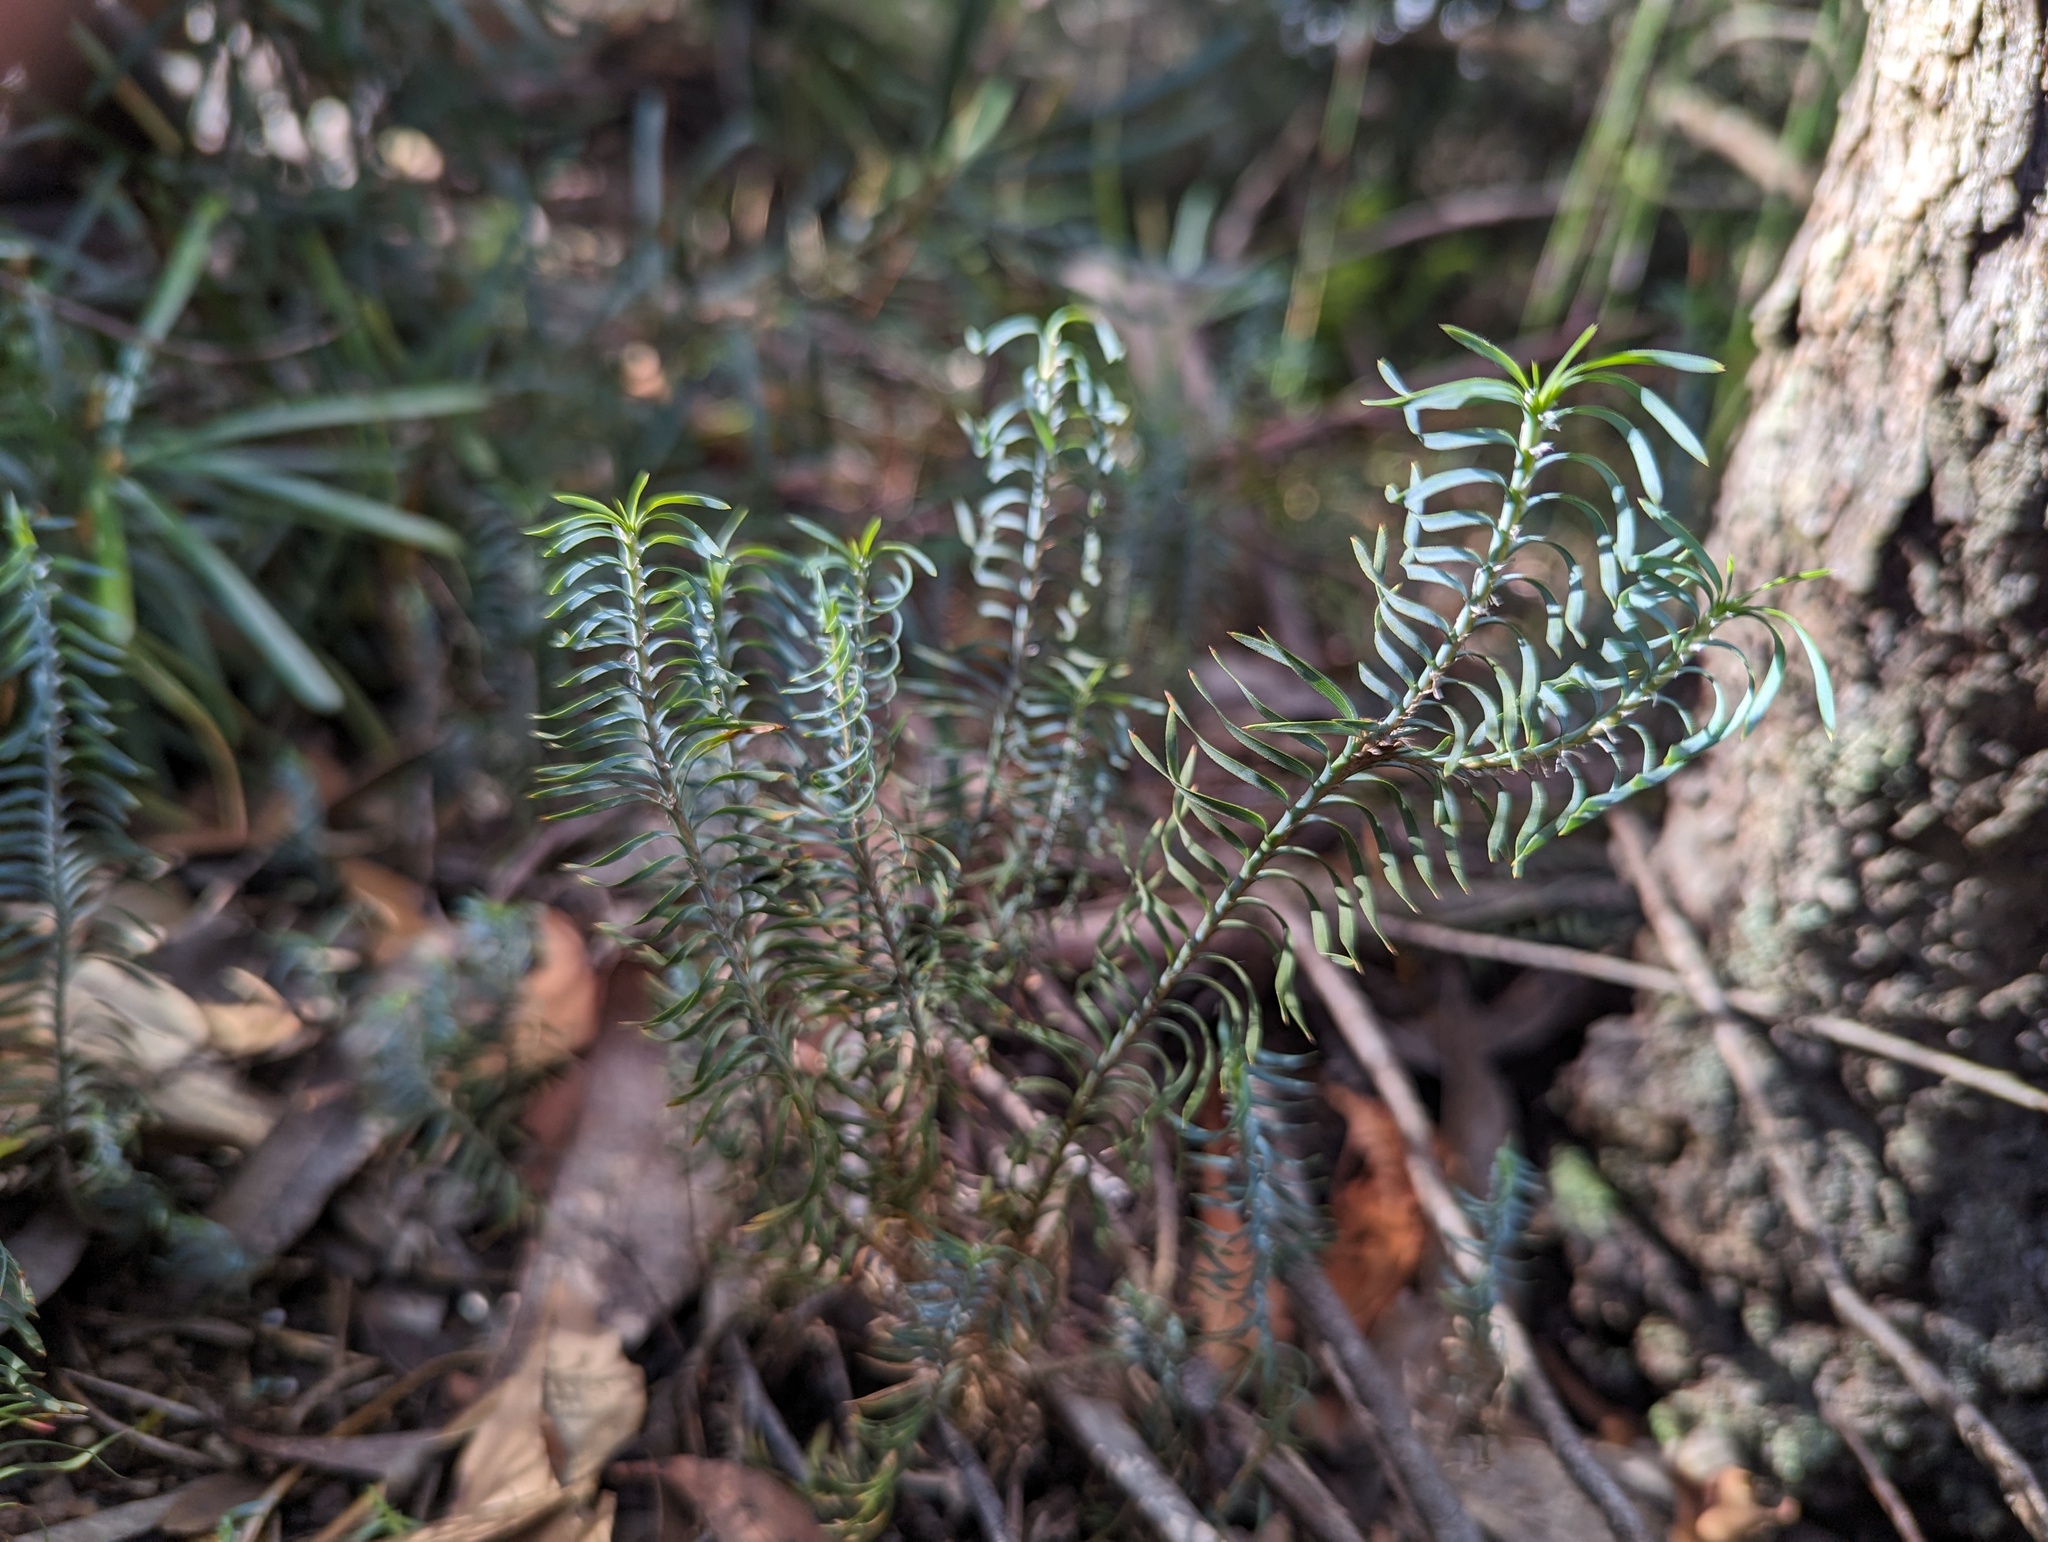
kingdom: Plantae
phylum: Tracheophyta
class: Liliopsida
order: Asparagales
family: Asparagaceae
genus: Lomandra
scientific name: Lomandra obliqua
